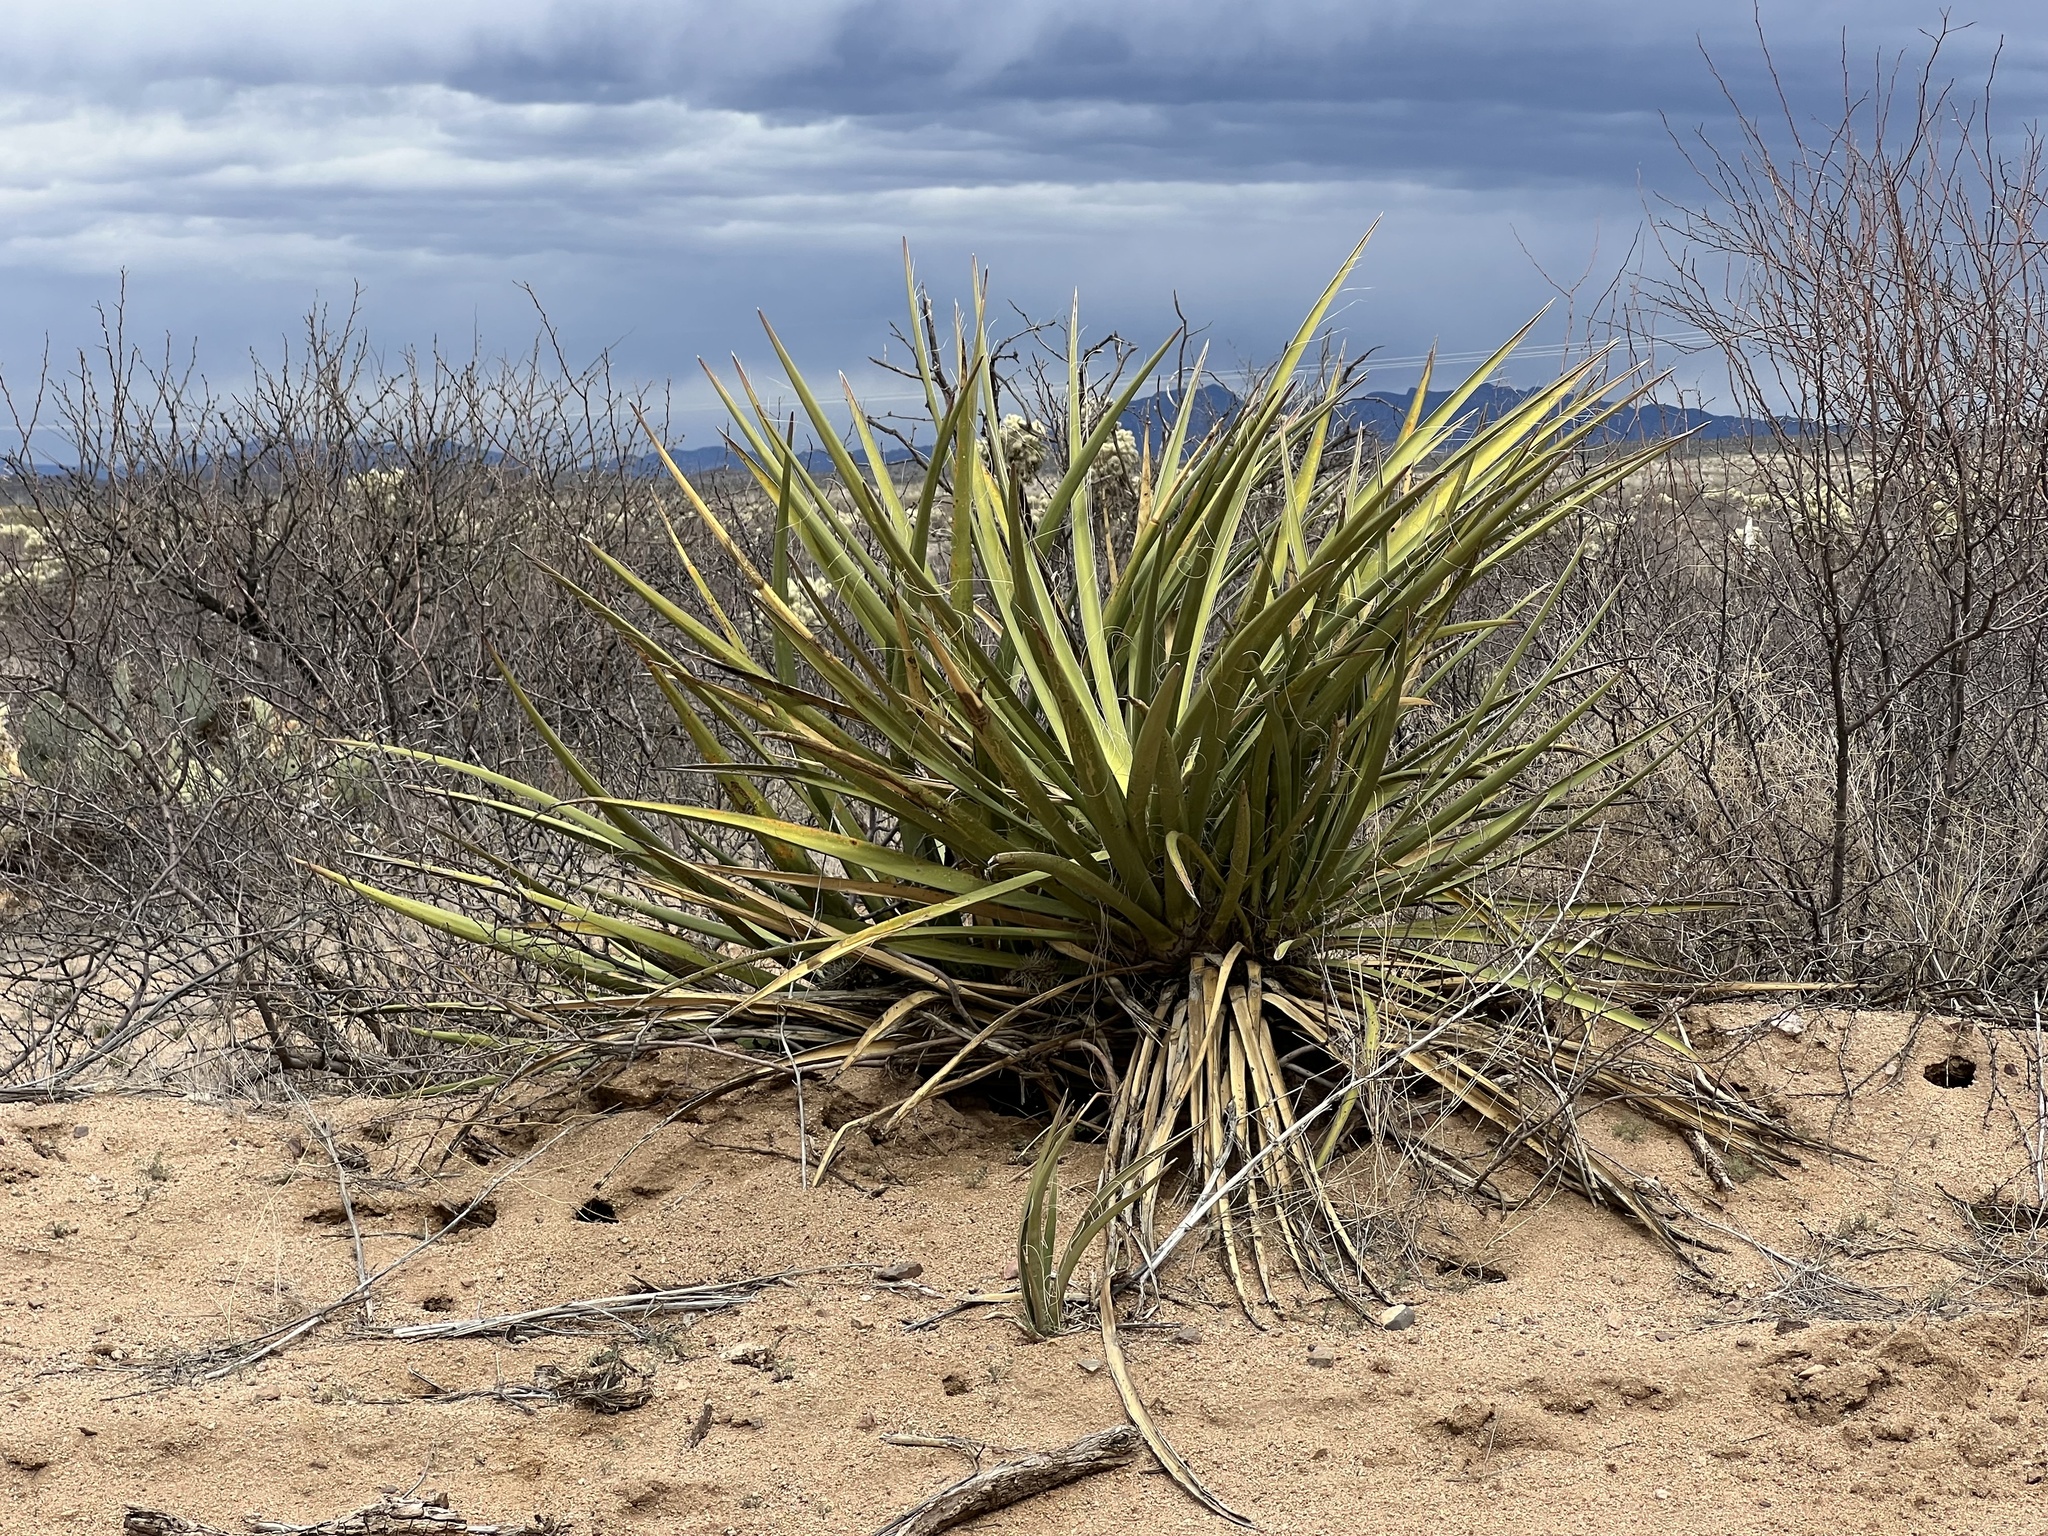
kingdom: Plantae
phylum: Tracheophyta
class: Liliopsida
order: Asparagales
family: Asparagaceae
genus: Yucca
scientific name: Yucca baccata
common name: Banana yucca
